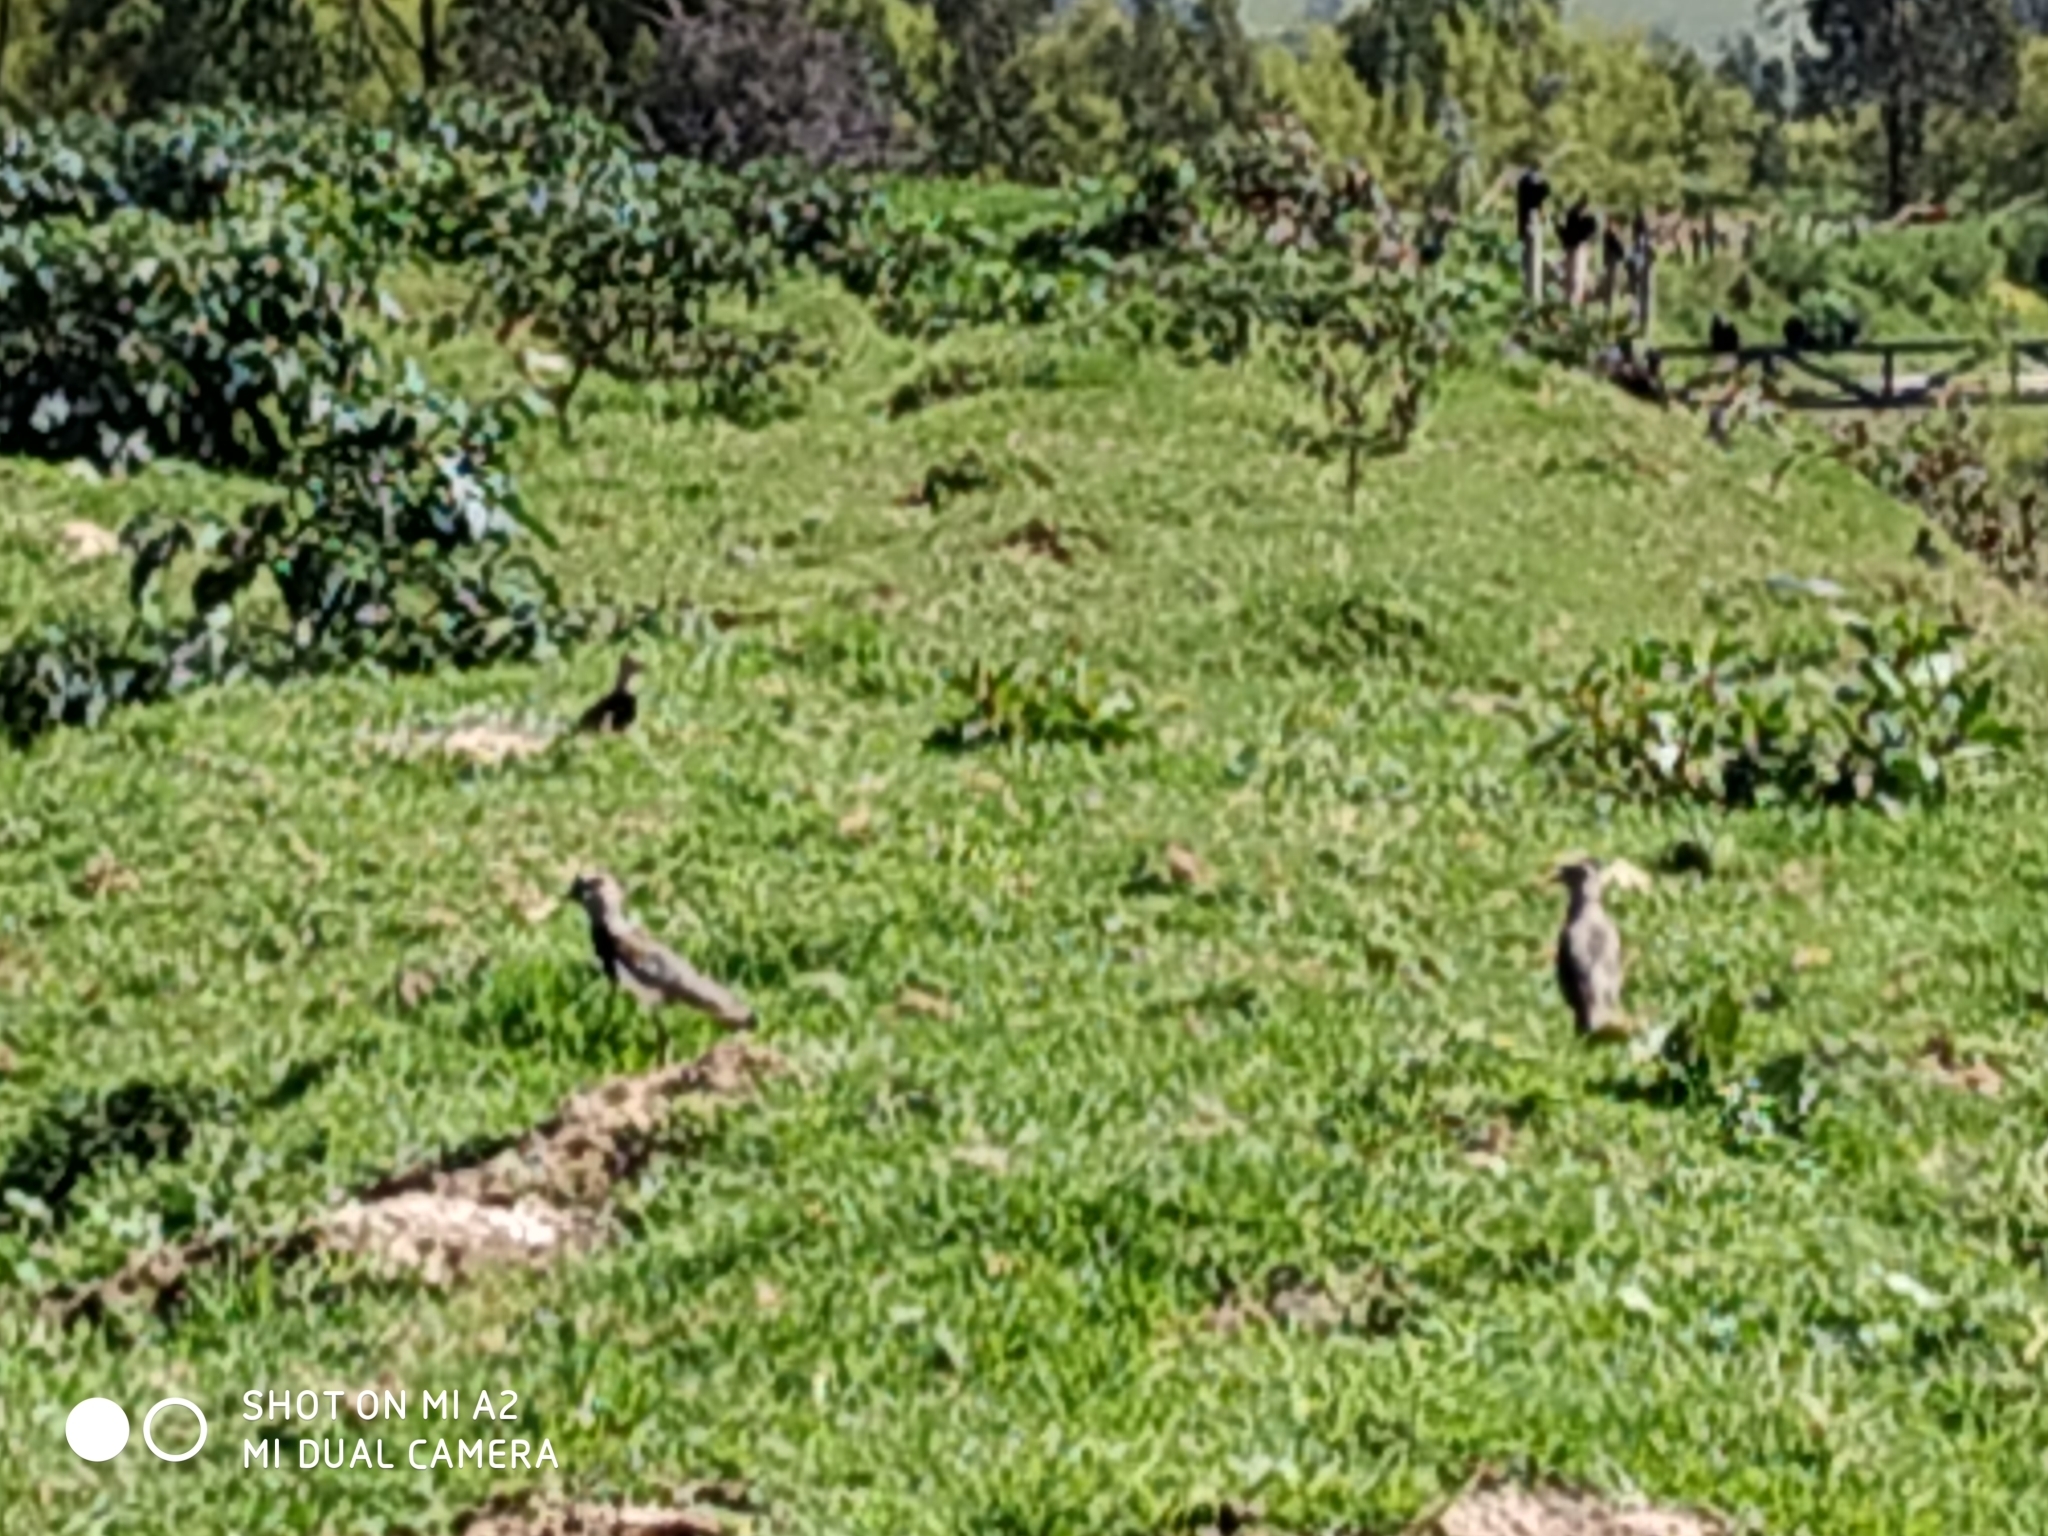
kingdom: Animalia
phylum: Chordata
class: Aves
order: Charadriiformes
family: Charadriidae
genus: Vanellus
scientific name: Vanellus chilensis
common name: Southern lapwing
